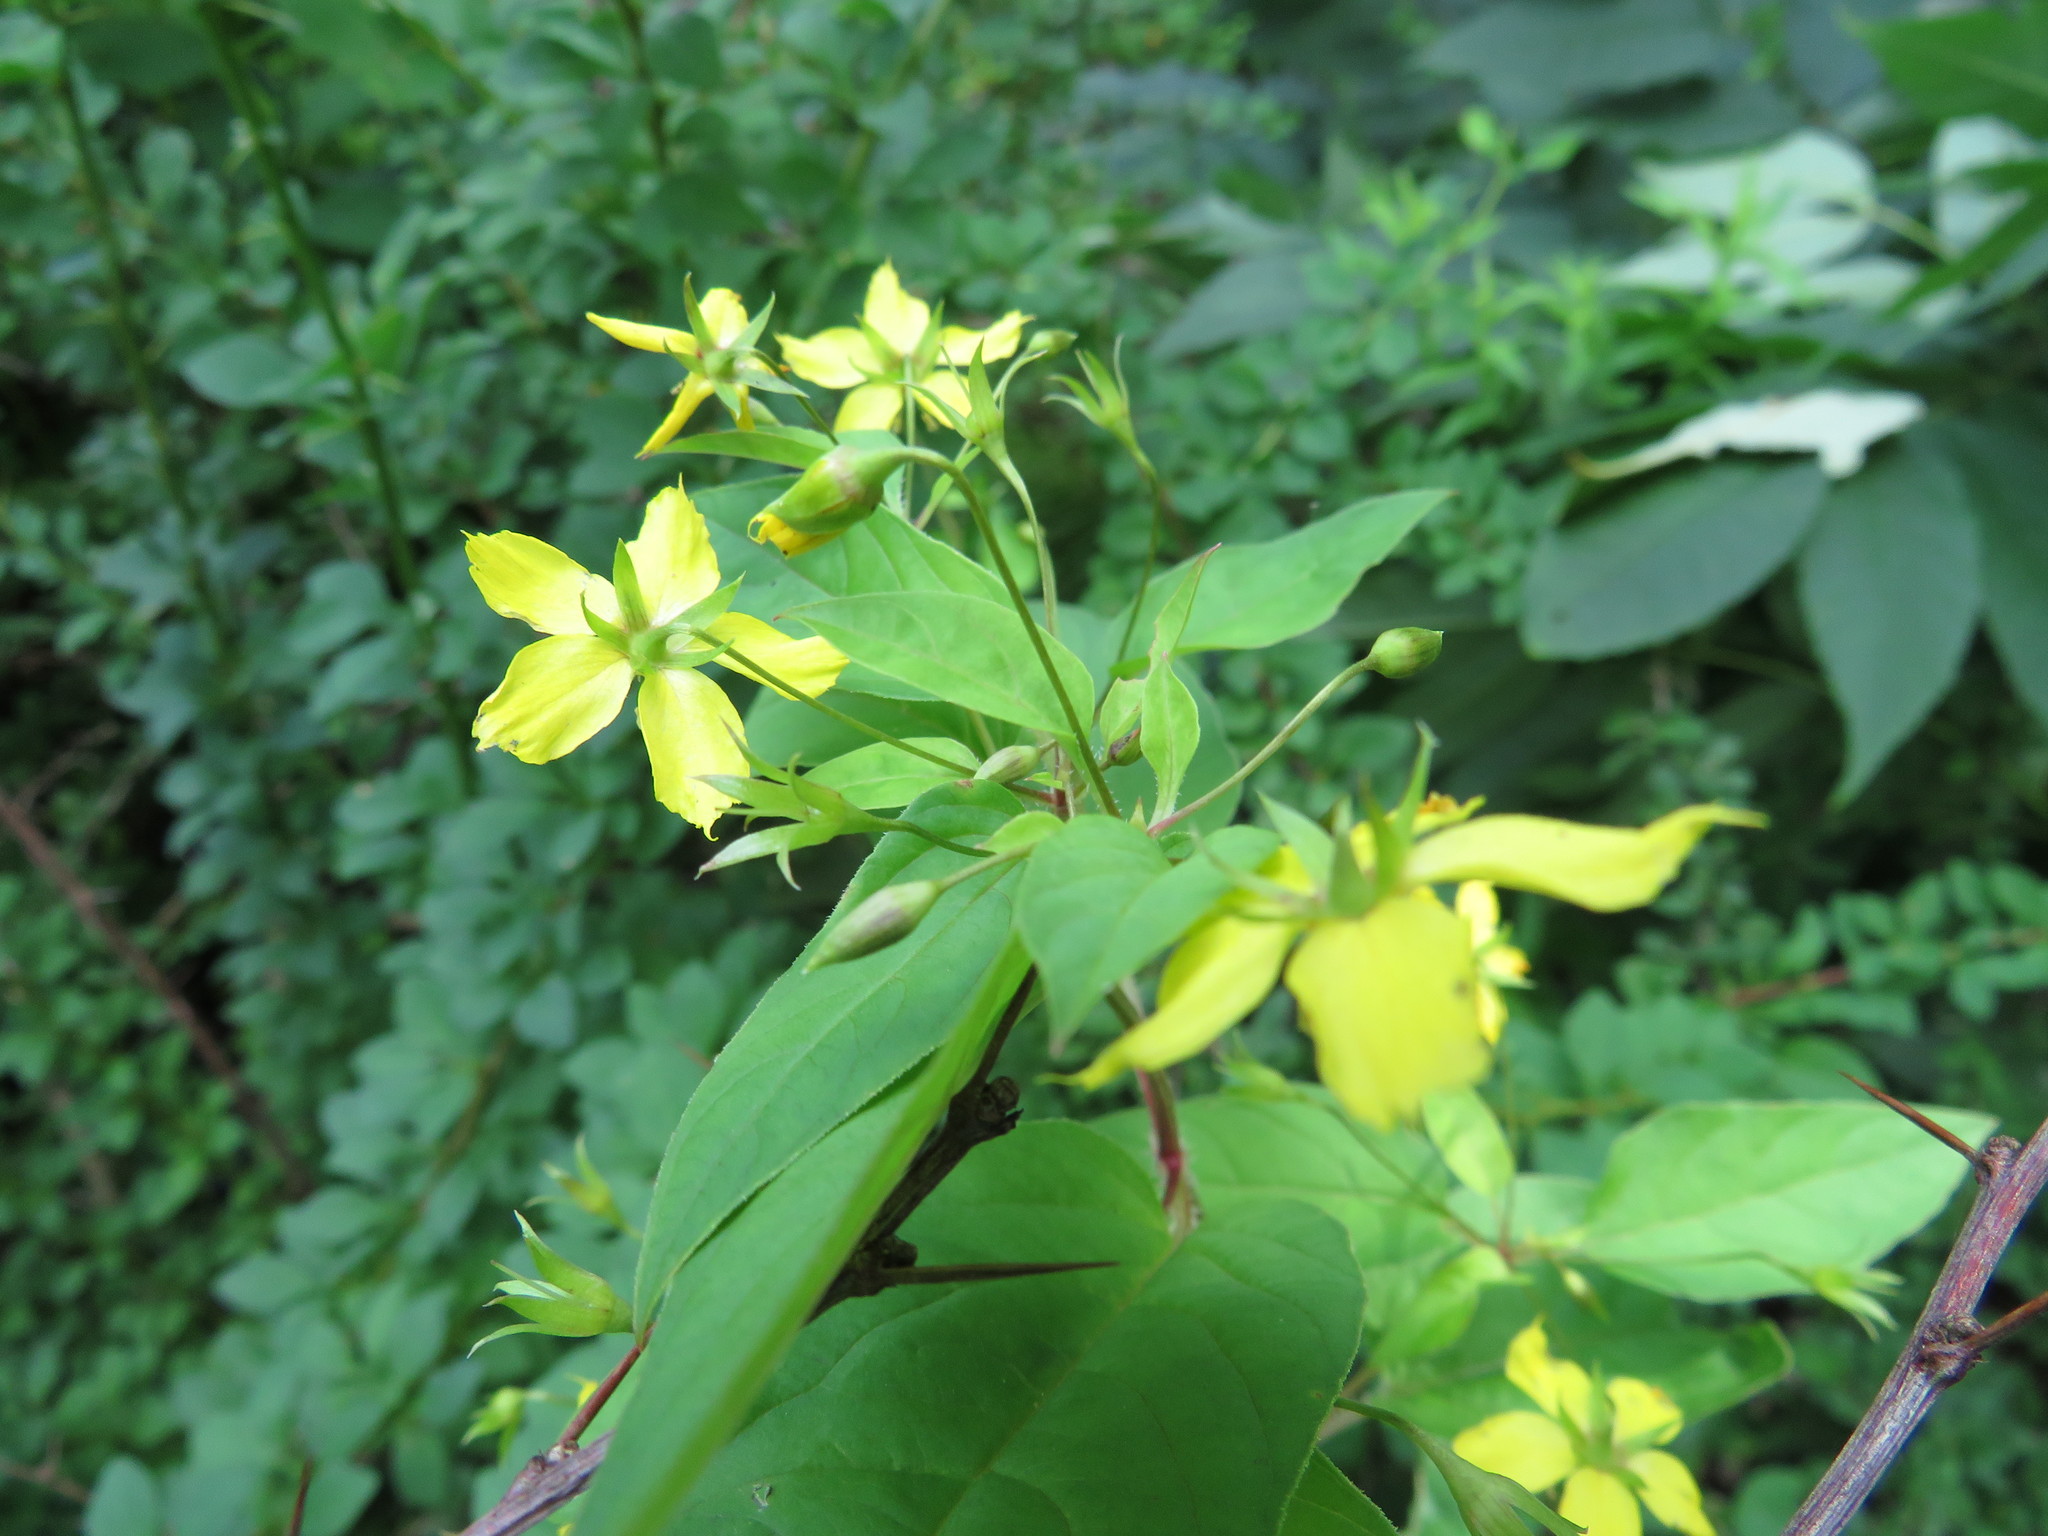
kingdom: Plantae
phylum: Tracheophyta
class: Magnoliopsida
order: Ericales
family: Primulaceae
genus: Lysimachia
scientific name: Lysimachia ciliata
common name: Fringed loosestrife
